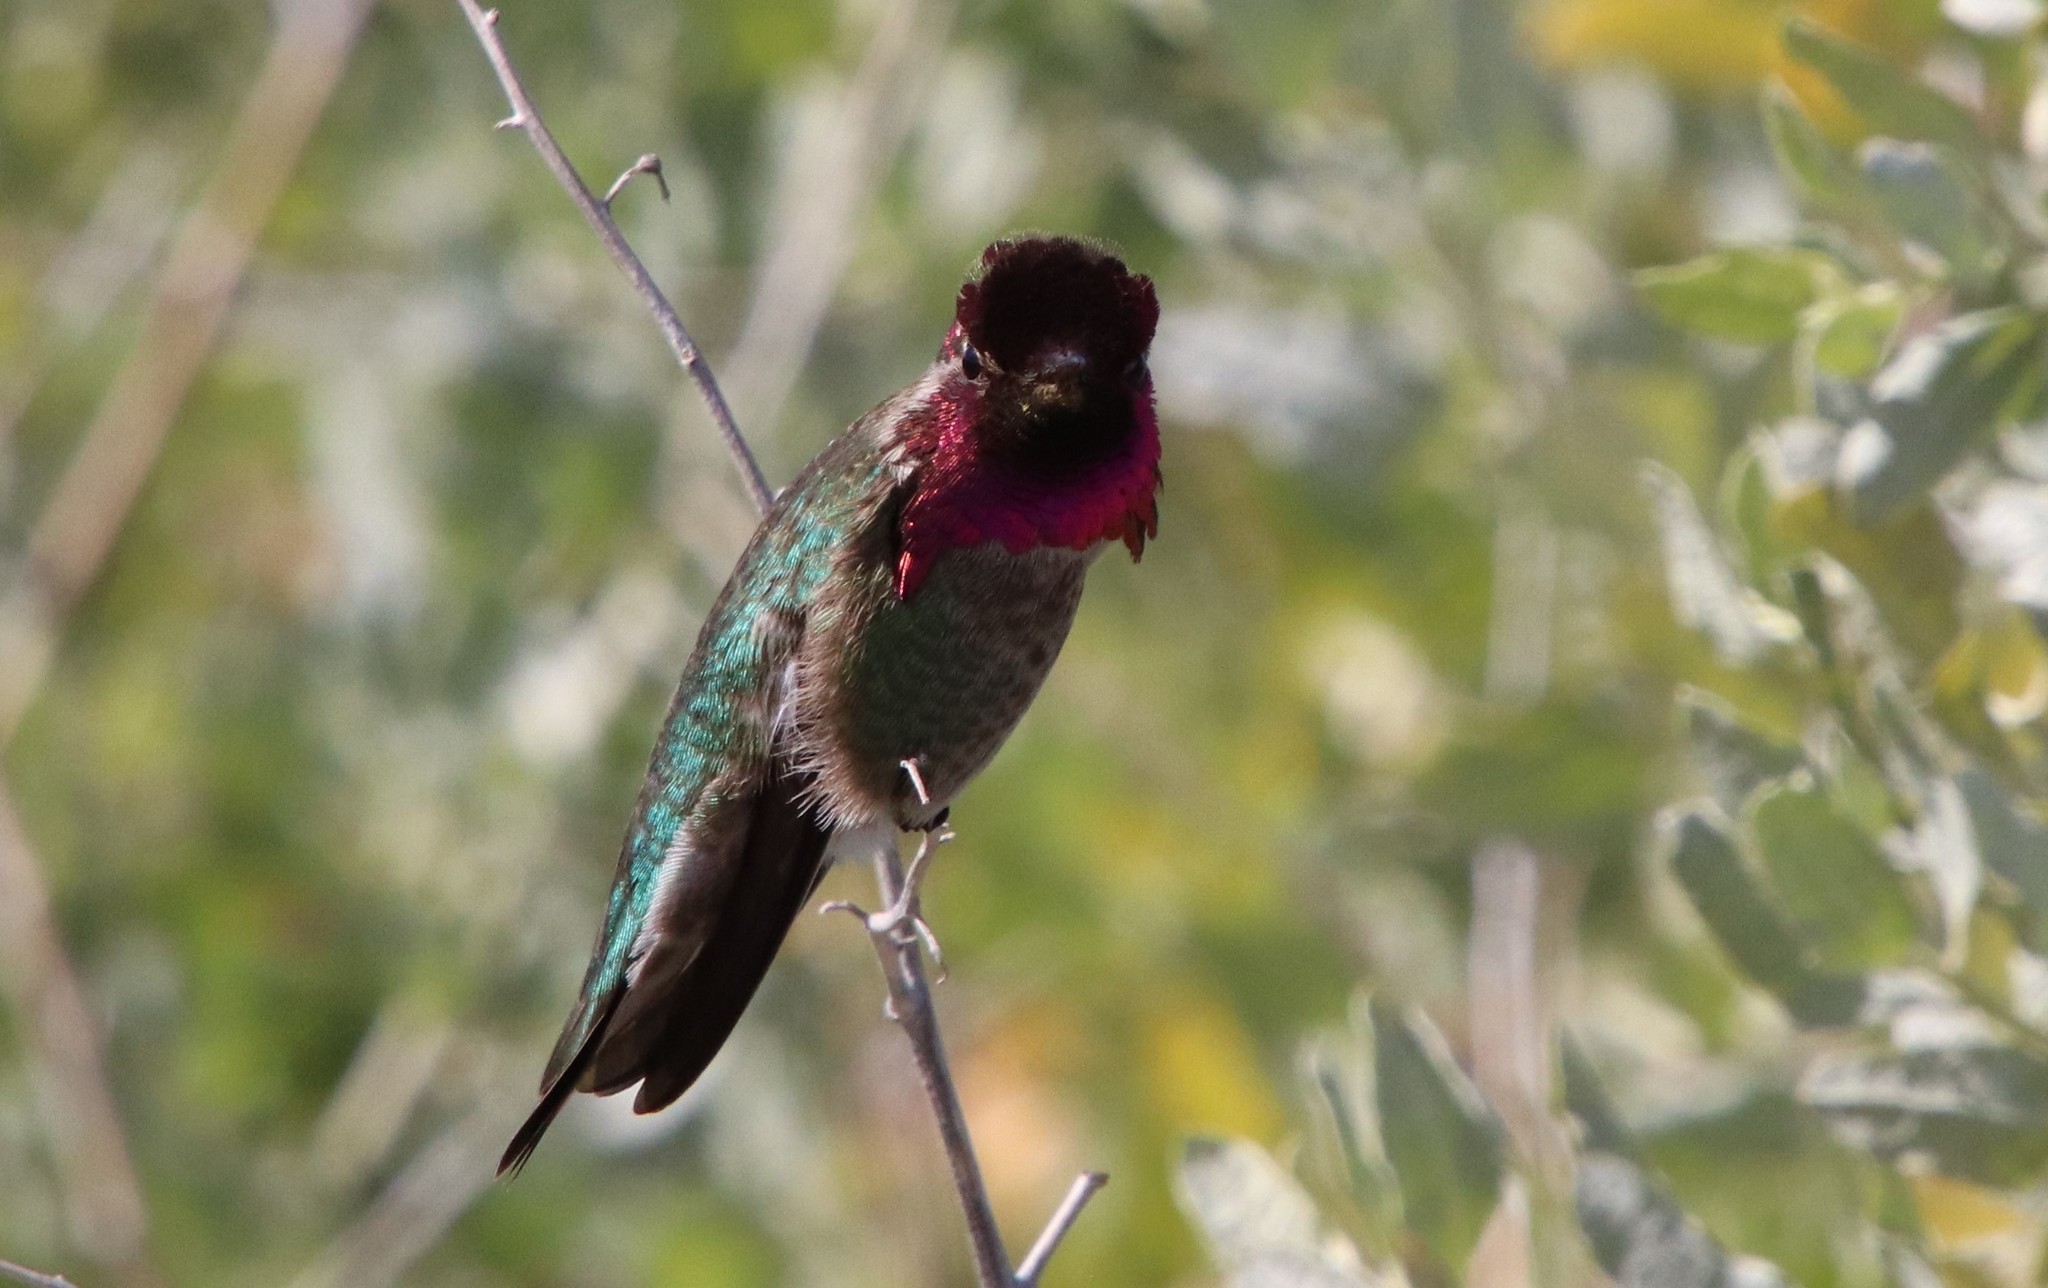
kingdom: Animalia
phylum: Chordata
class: Aves
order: Apodiformes
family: Trochilidae
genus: Calypte
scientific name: Calypte anna
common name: Anna's hummingbird
